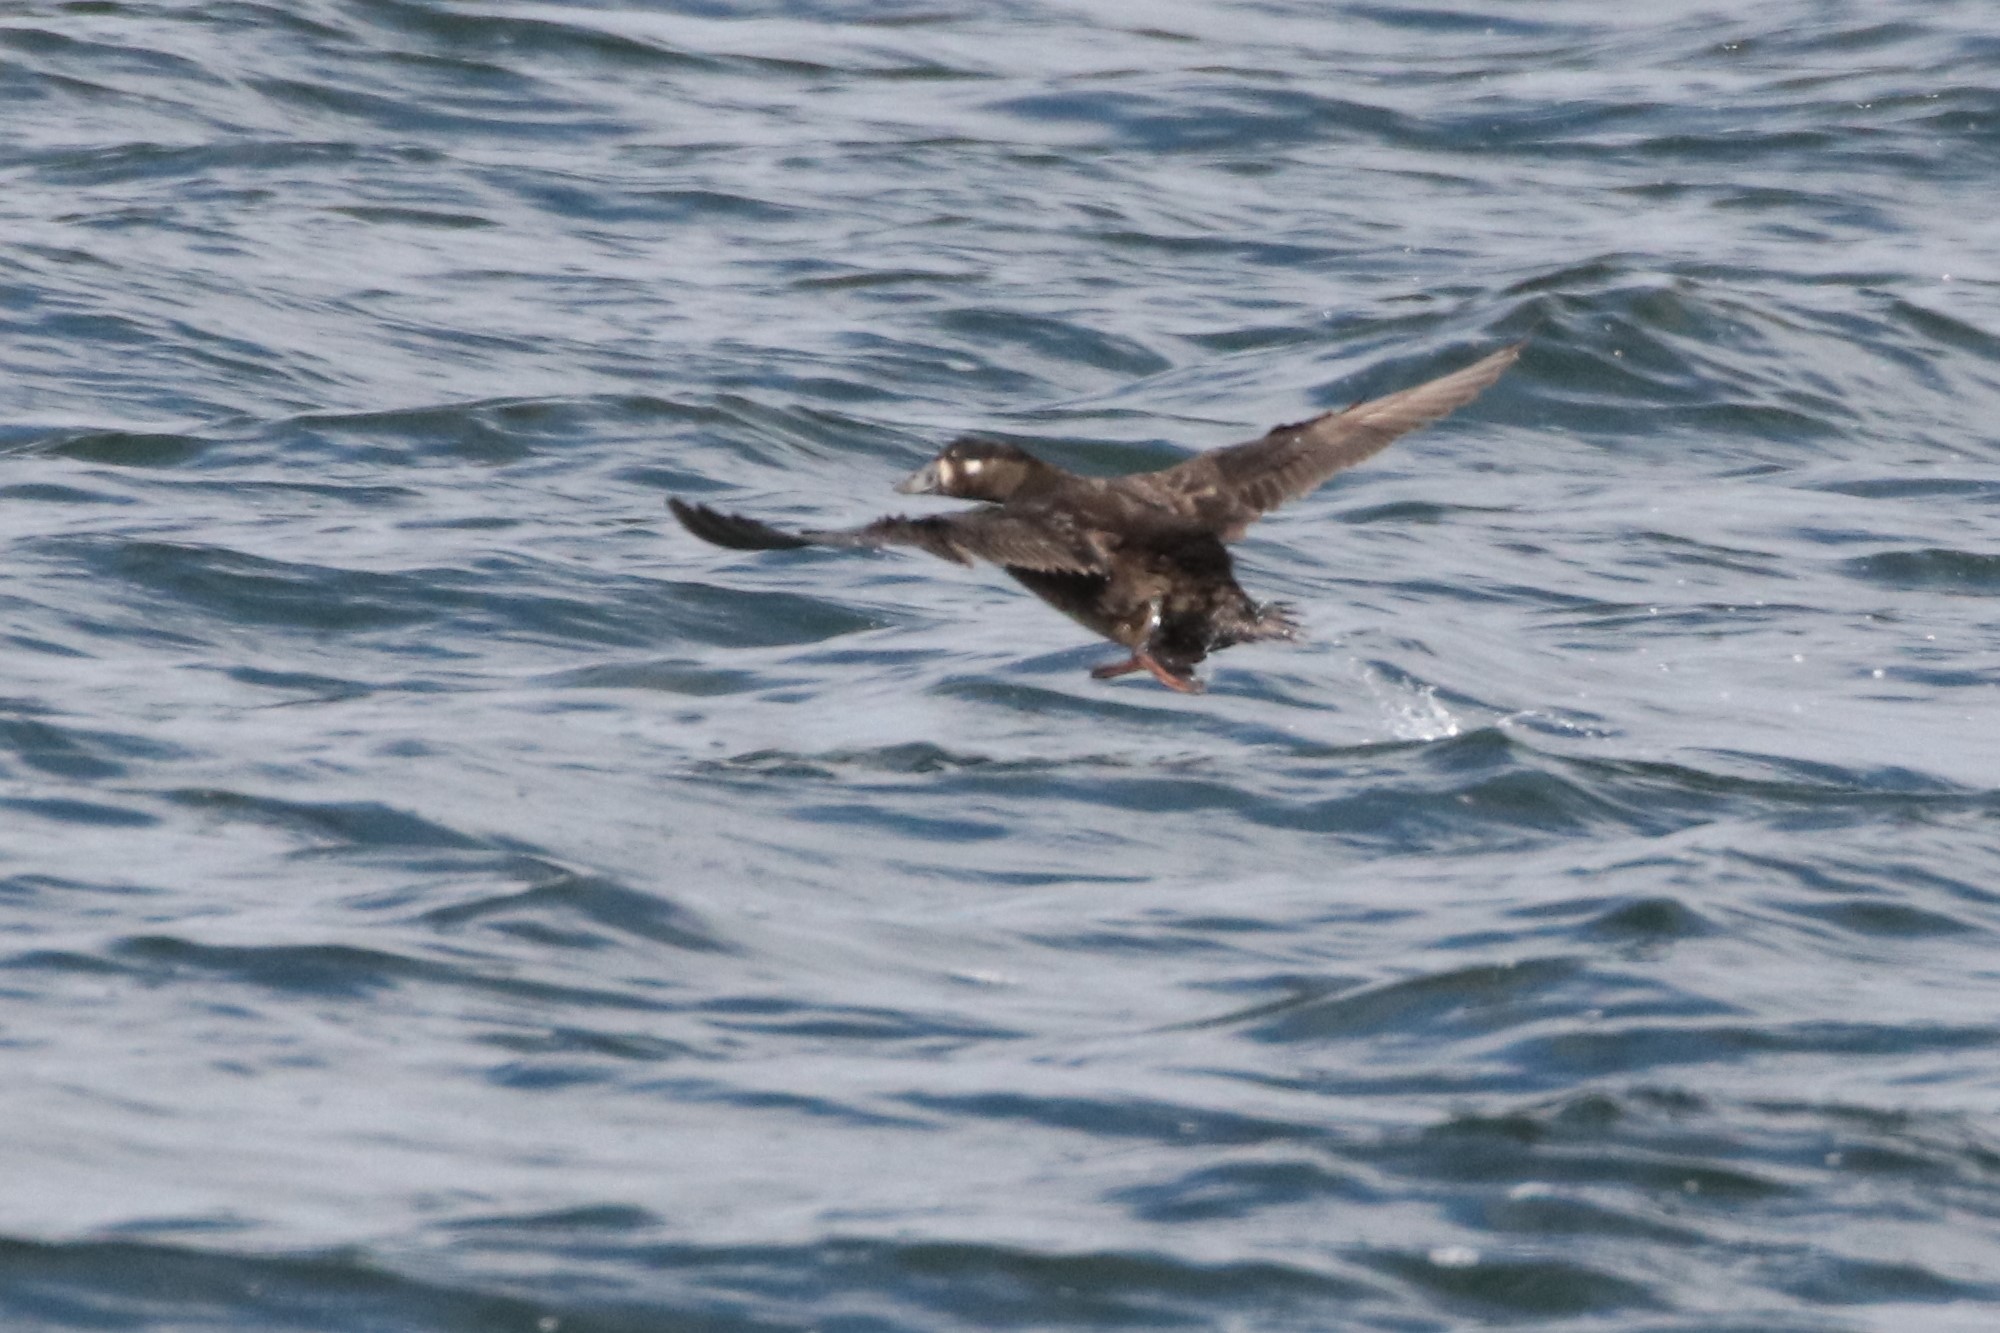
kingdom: Animalia
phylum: Chordata
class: Aves
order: Anseriformes
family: Anatidae
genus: Melanitta
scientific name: Melanitta perspicillata
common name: Surf scoter
